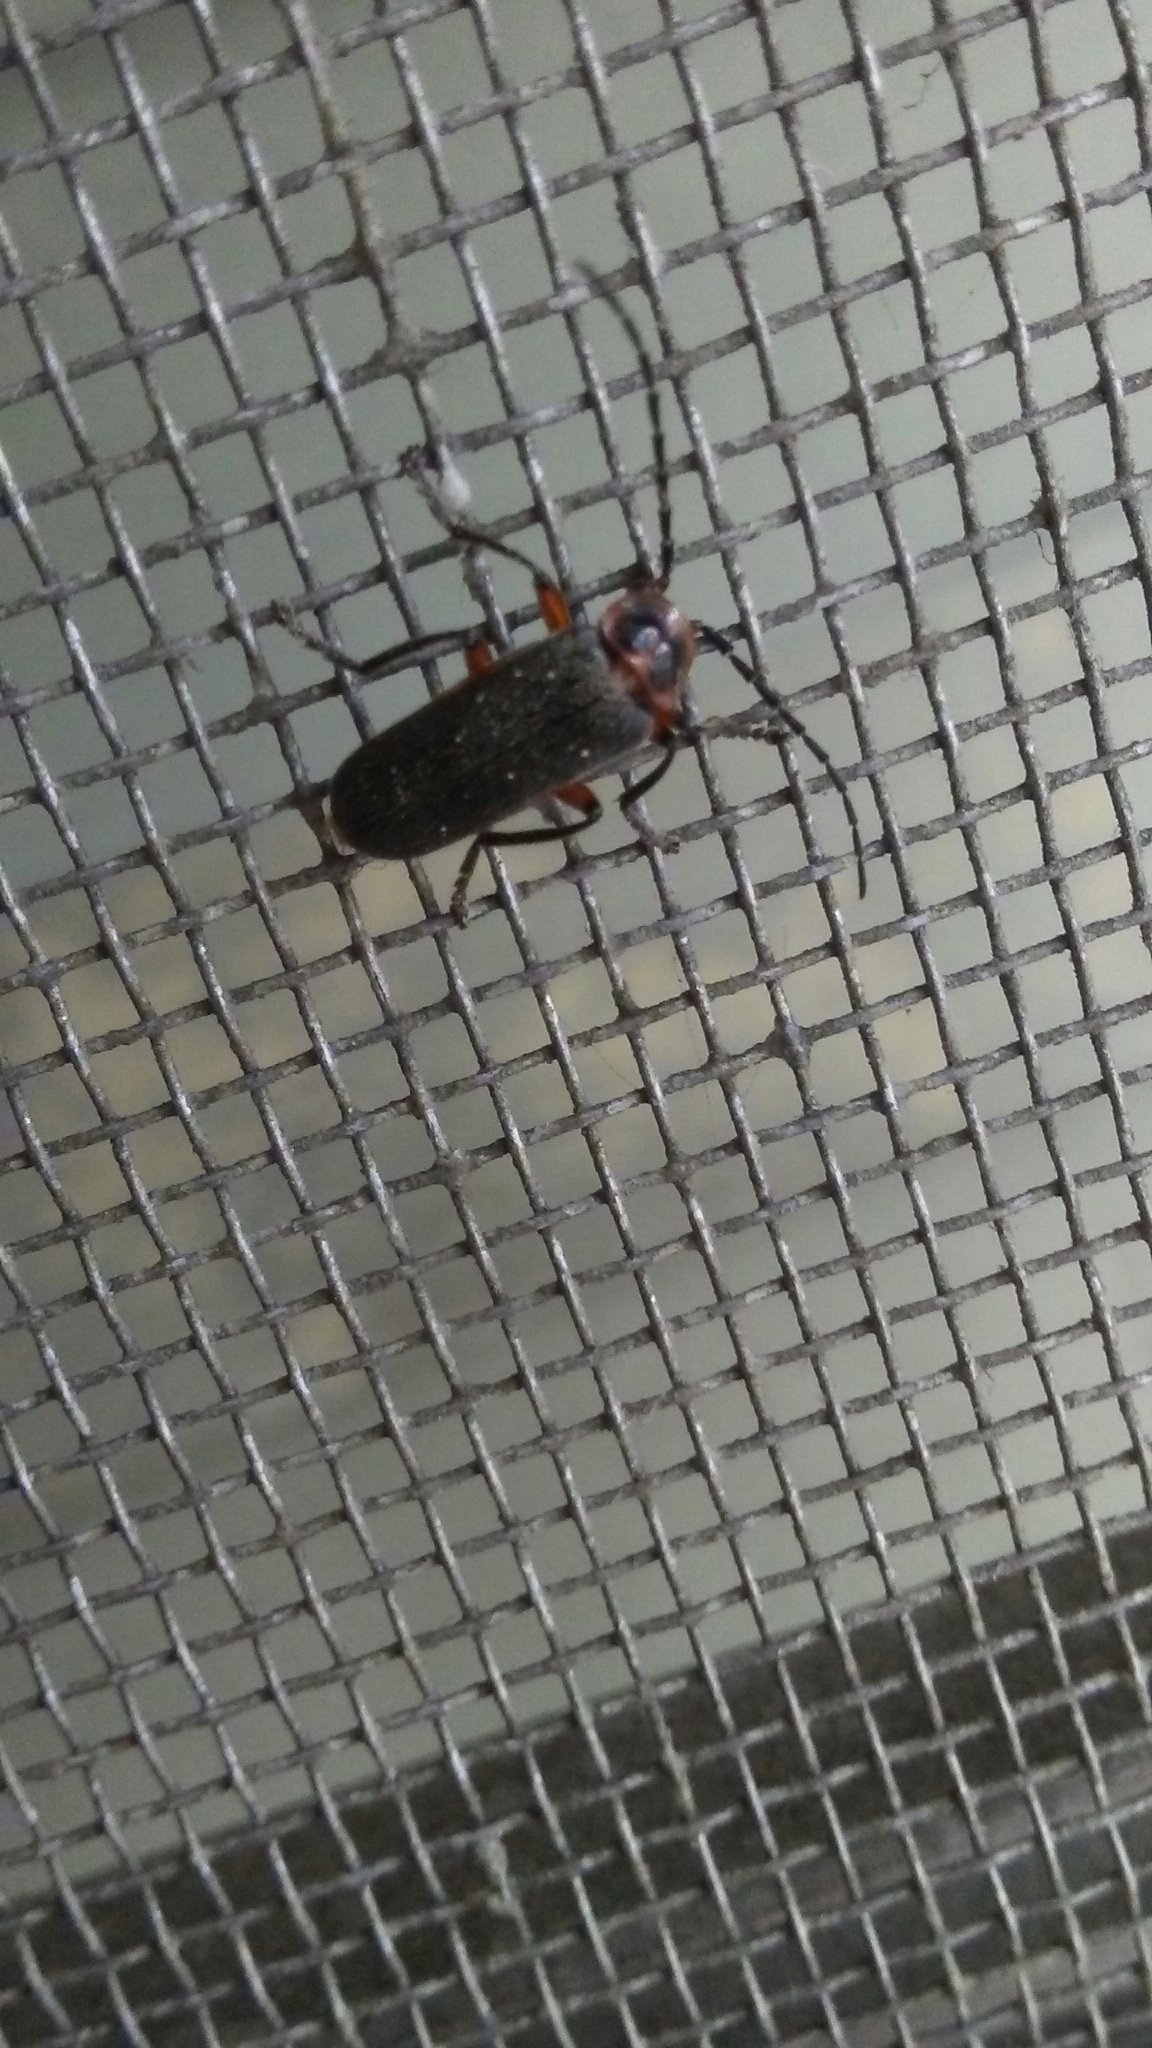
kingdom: Animalia
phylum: Arthropoda
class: Insecta
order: Coleoptera
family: Cantharidae
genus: Atalantycha
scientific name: Atalantycha bilineata
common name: Two-lined leatherwing
